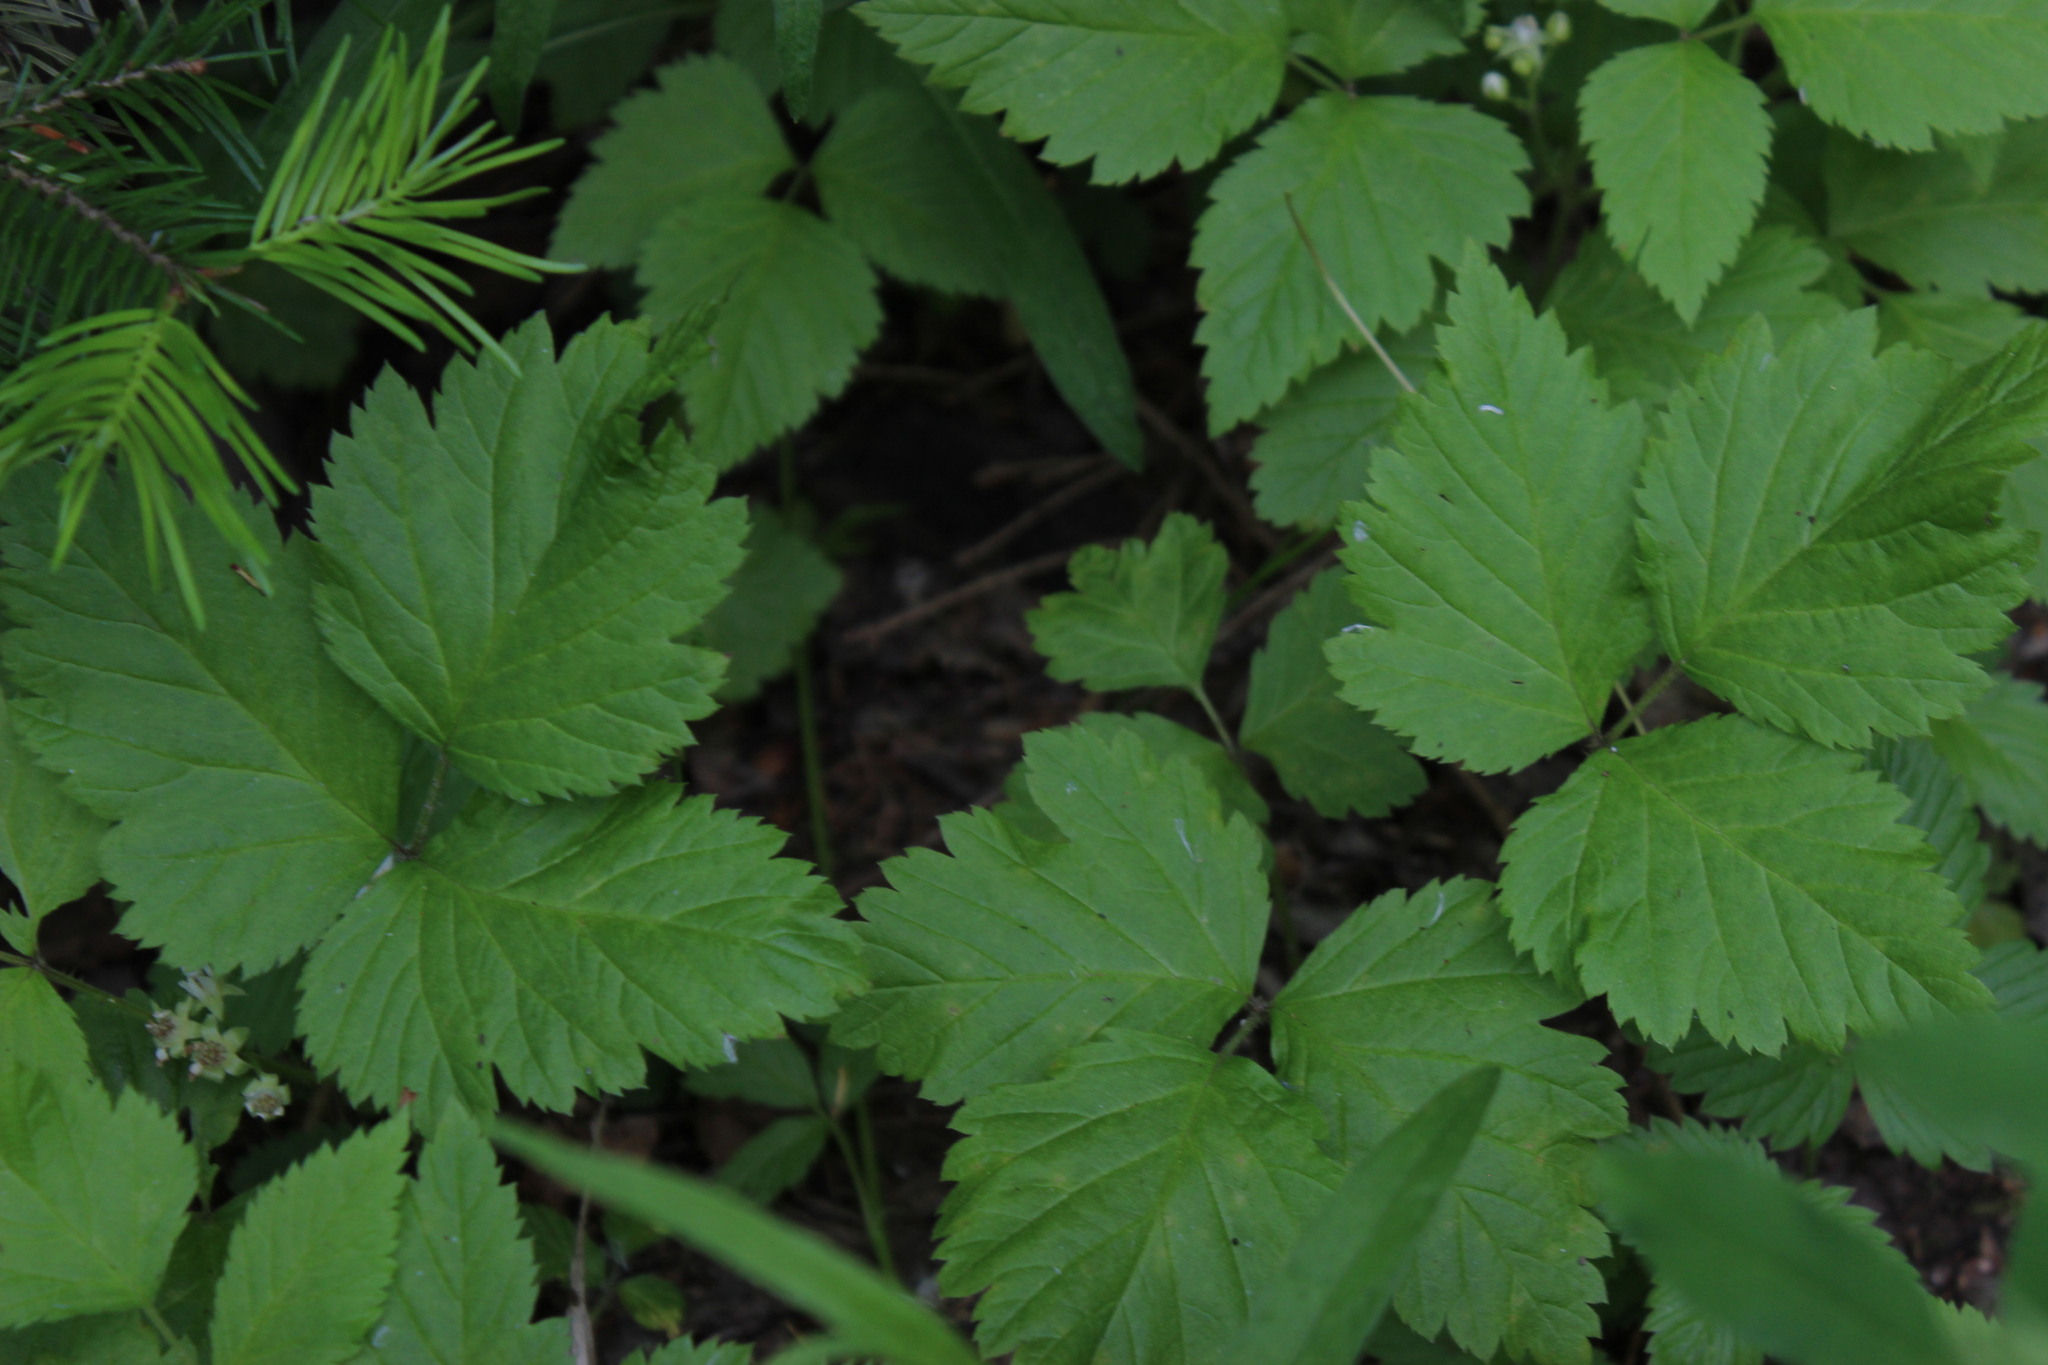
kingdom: Plantae
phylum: Tracheophyta
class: Magnoliopsida
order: Rosales
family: Rosaceae
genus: Rubus
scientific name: Rubus saxatilis
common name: Stone bramble
